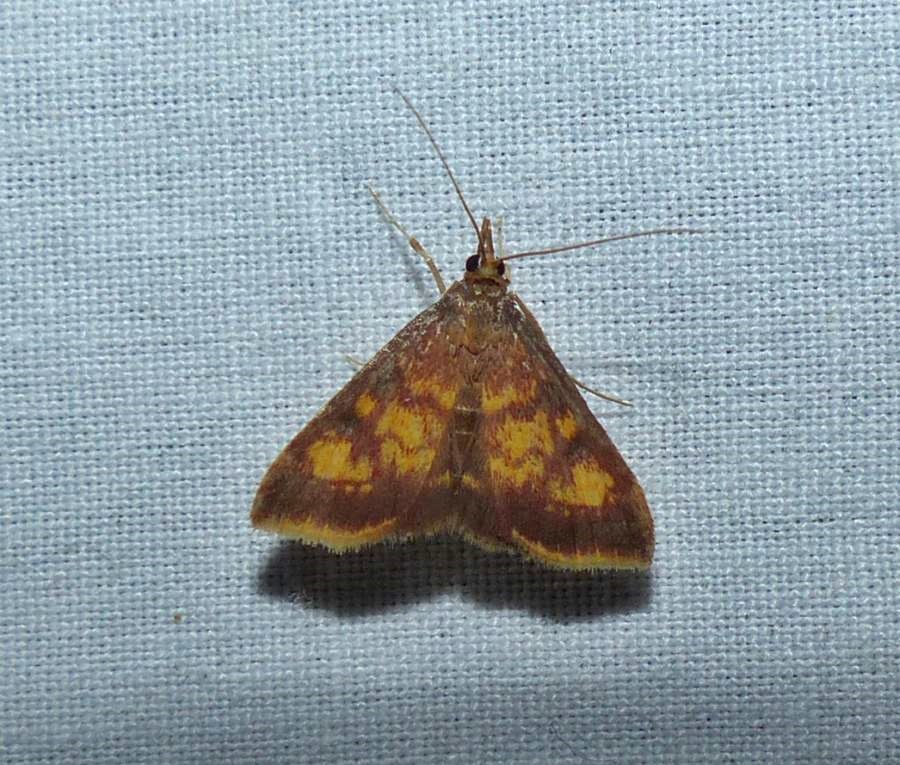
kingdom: Animalia
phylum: Arthropoda
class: Insecta
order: Lepidoptera
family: Crambidae
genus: Pyrausta
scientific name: Pyrausta acrionalis
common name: Mint-loving pyrausta moth
